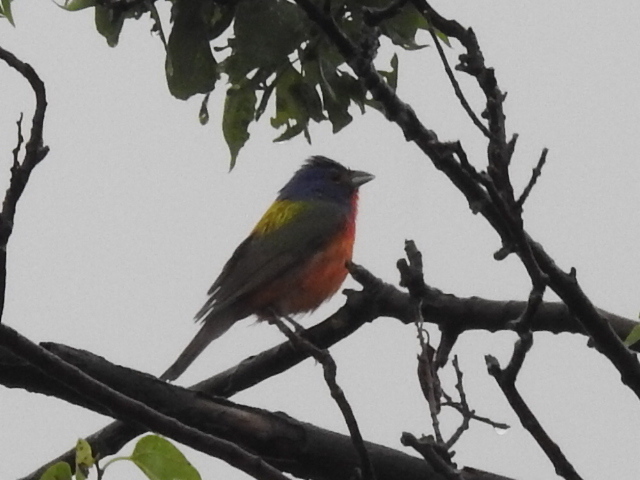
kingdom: Animalia
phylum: Chordata
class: Aves
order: Passeriformes
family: Cardinalidae
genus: Passerina
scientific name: Passerina ciris
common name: Painted bunting
